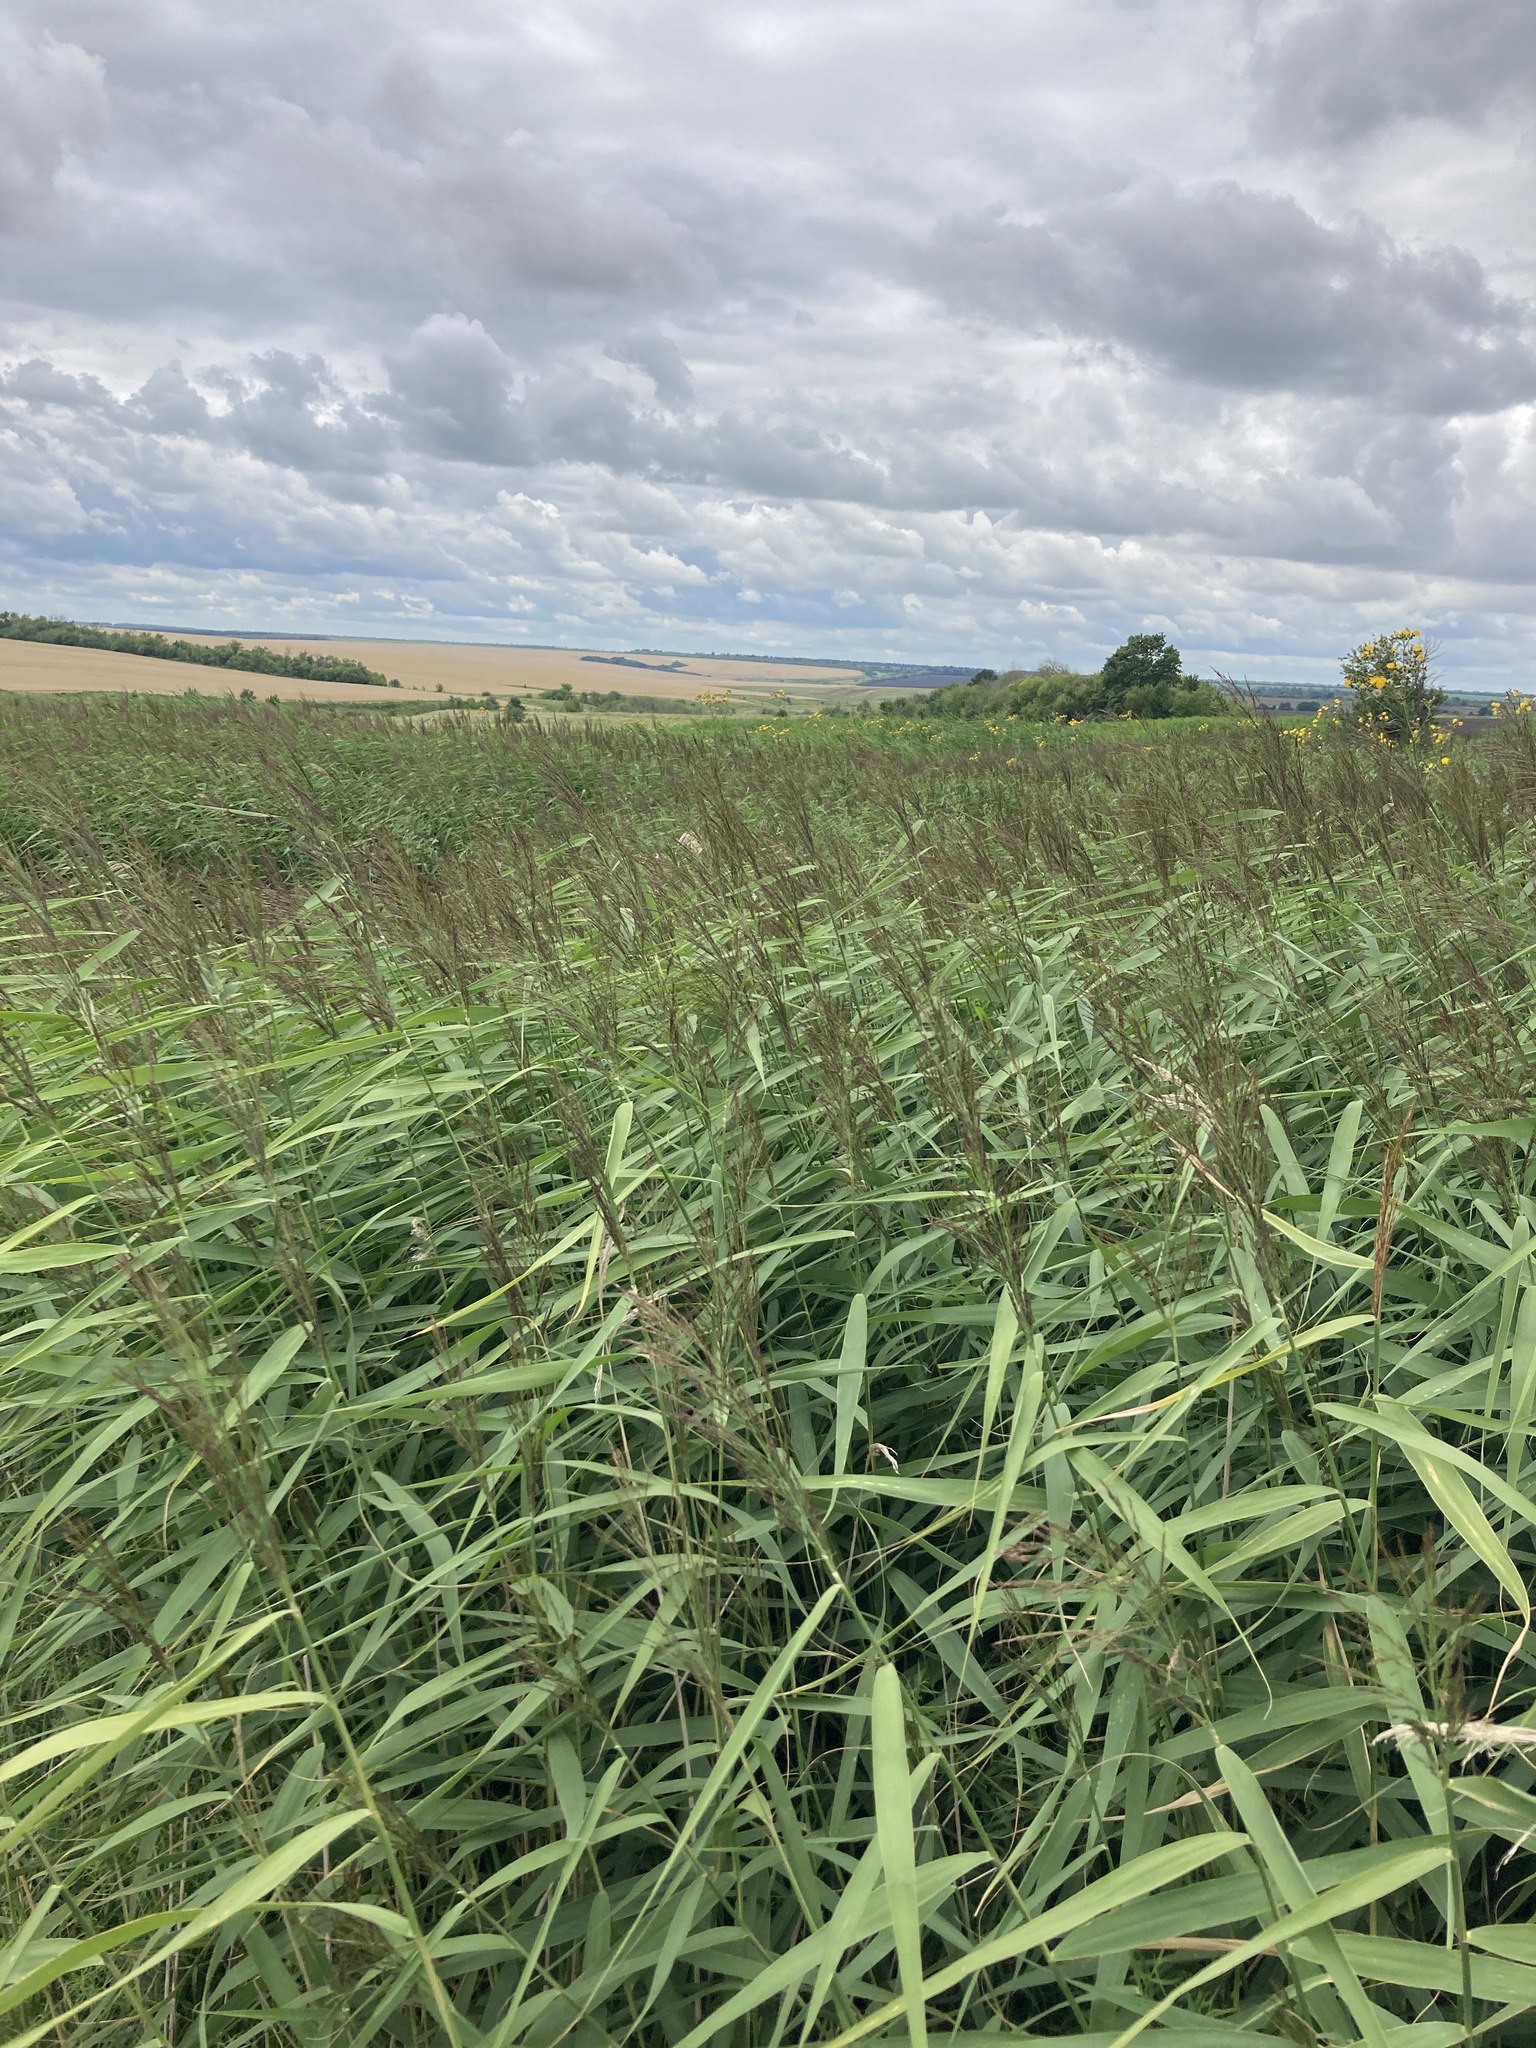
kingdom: Plantae
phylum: Tracheophyta
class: Liliopsida
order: Poales
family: Poaceae
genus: Phragmites
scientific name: Phragmites australis
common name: Common reed
